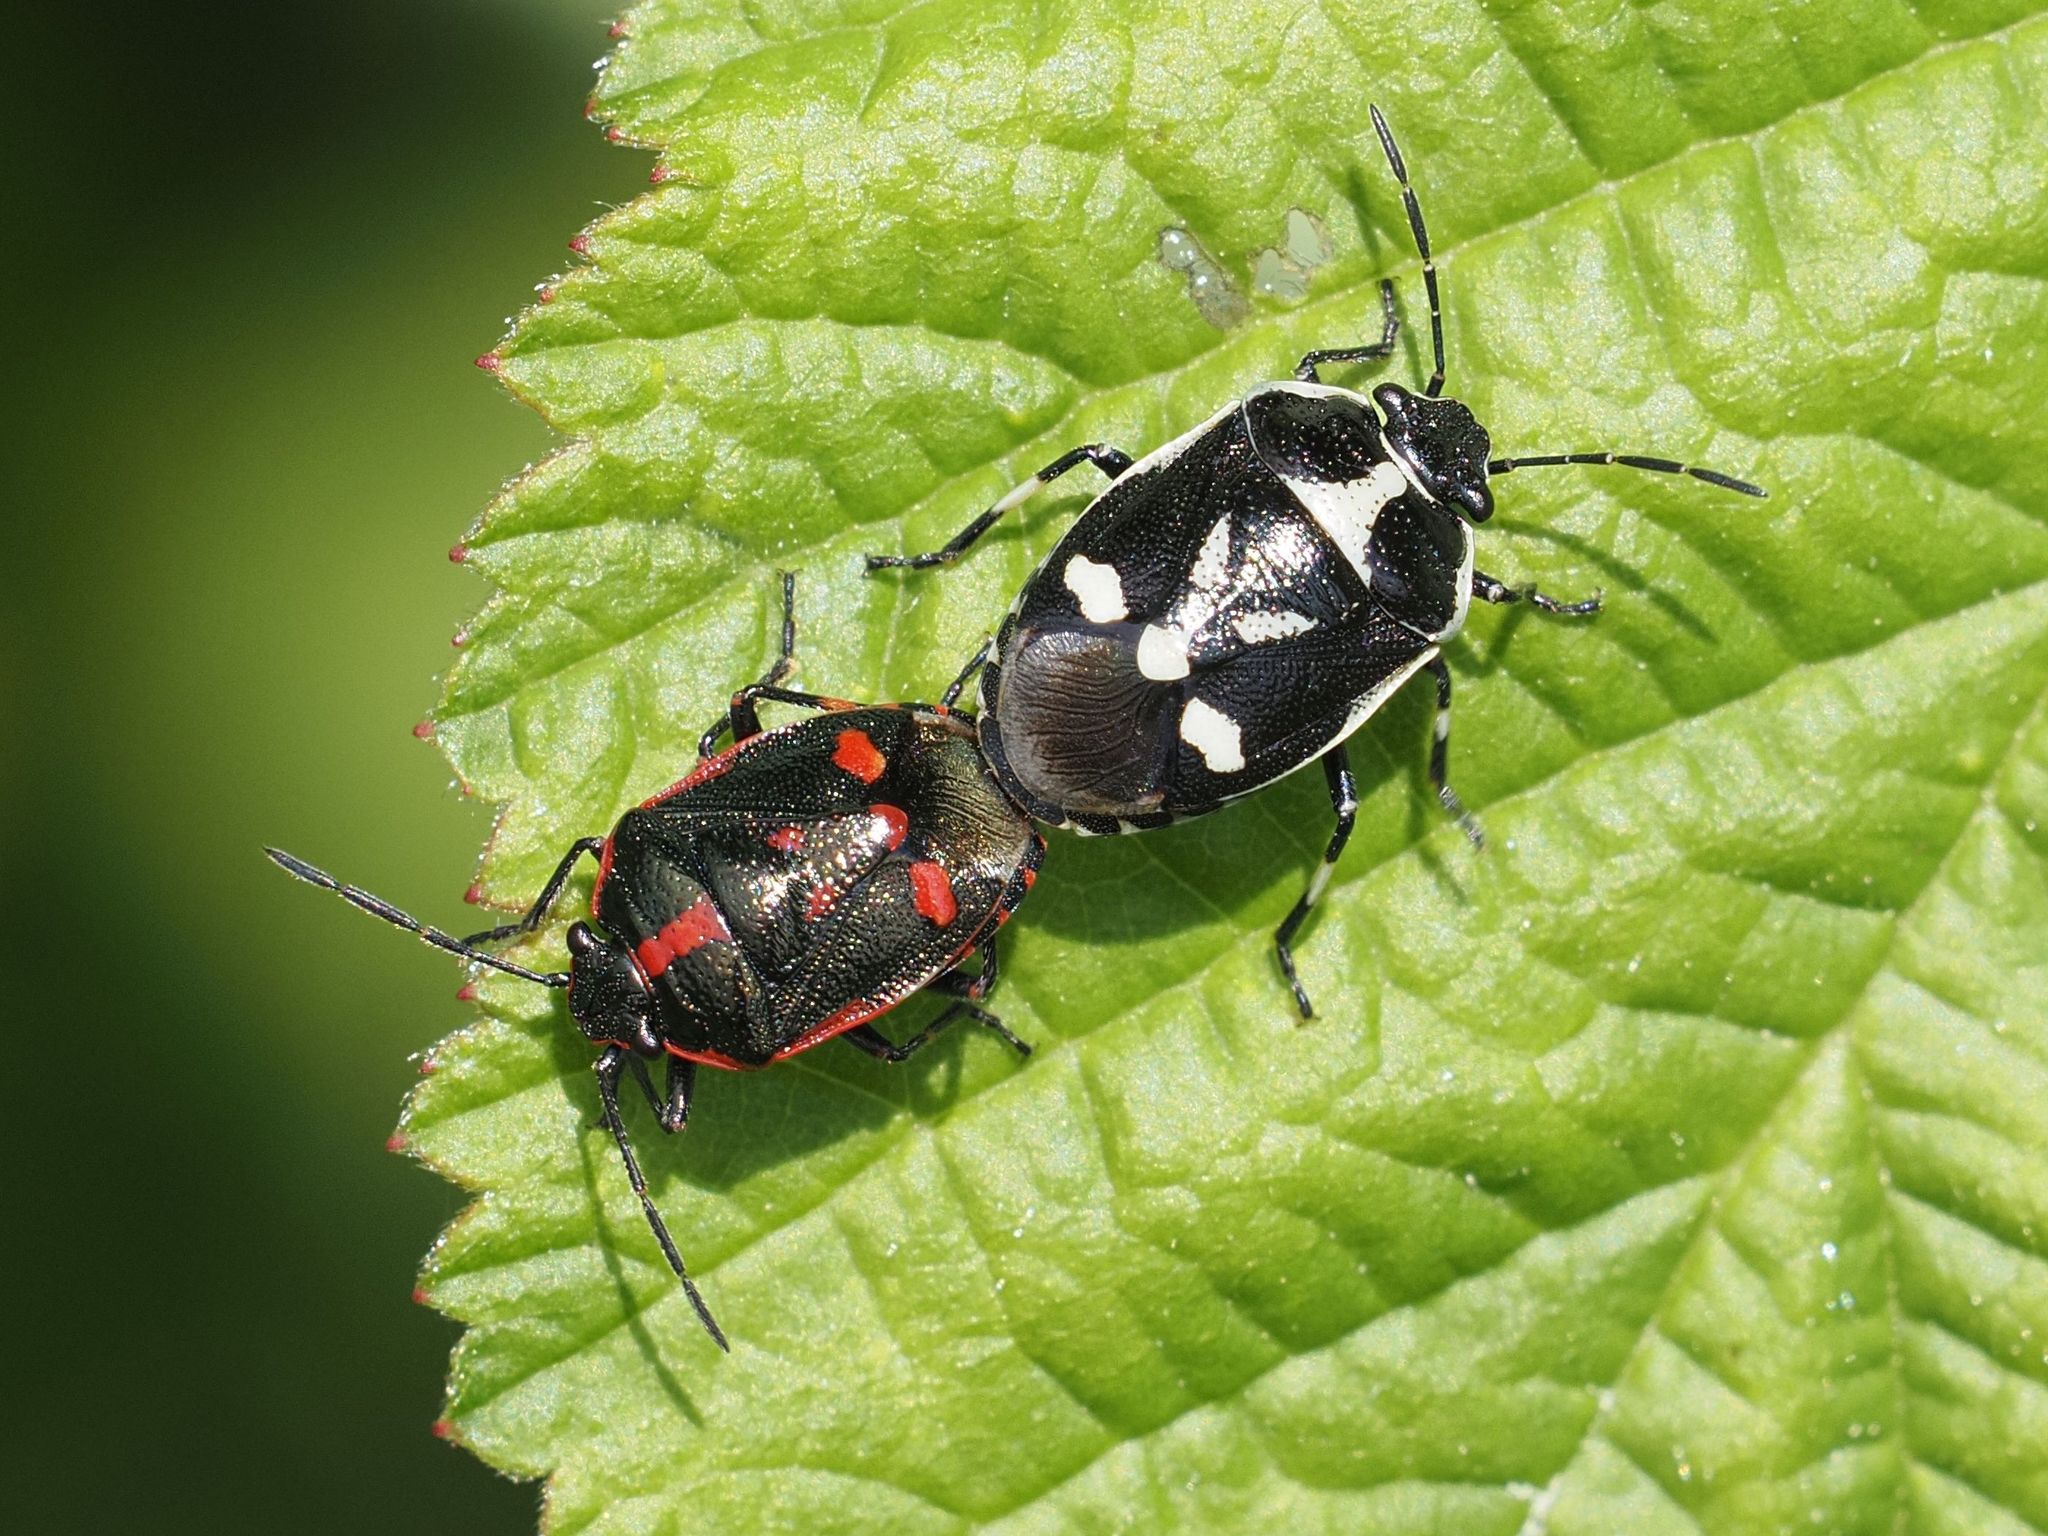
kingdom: Animalia
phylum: Arthropoda
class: Insecta
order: Hemiptera
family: Pentatomidae
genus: Eurydema
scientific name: Eurydema oleracea
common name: Cabbage bug
